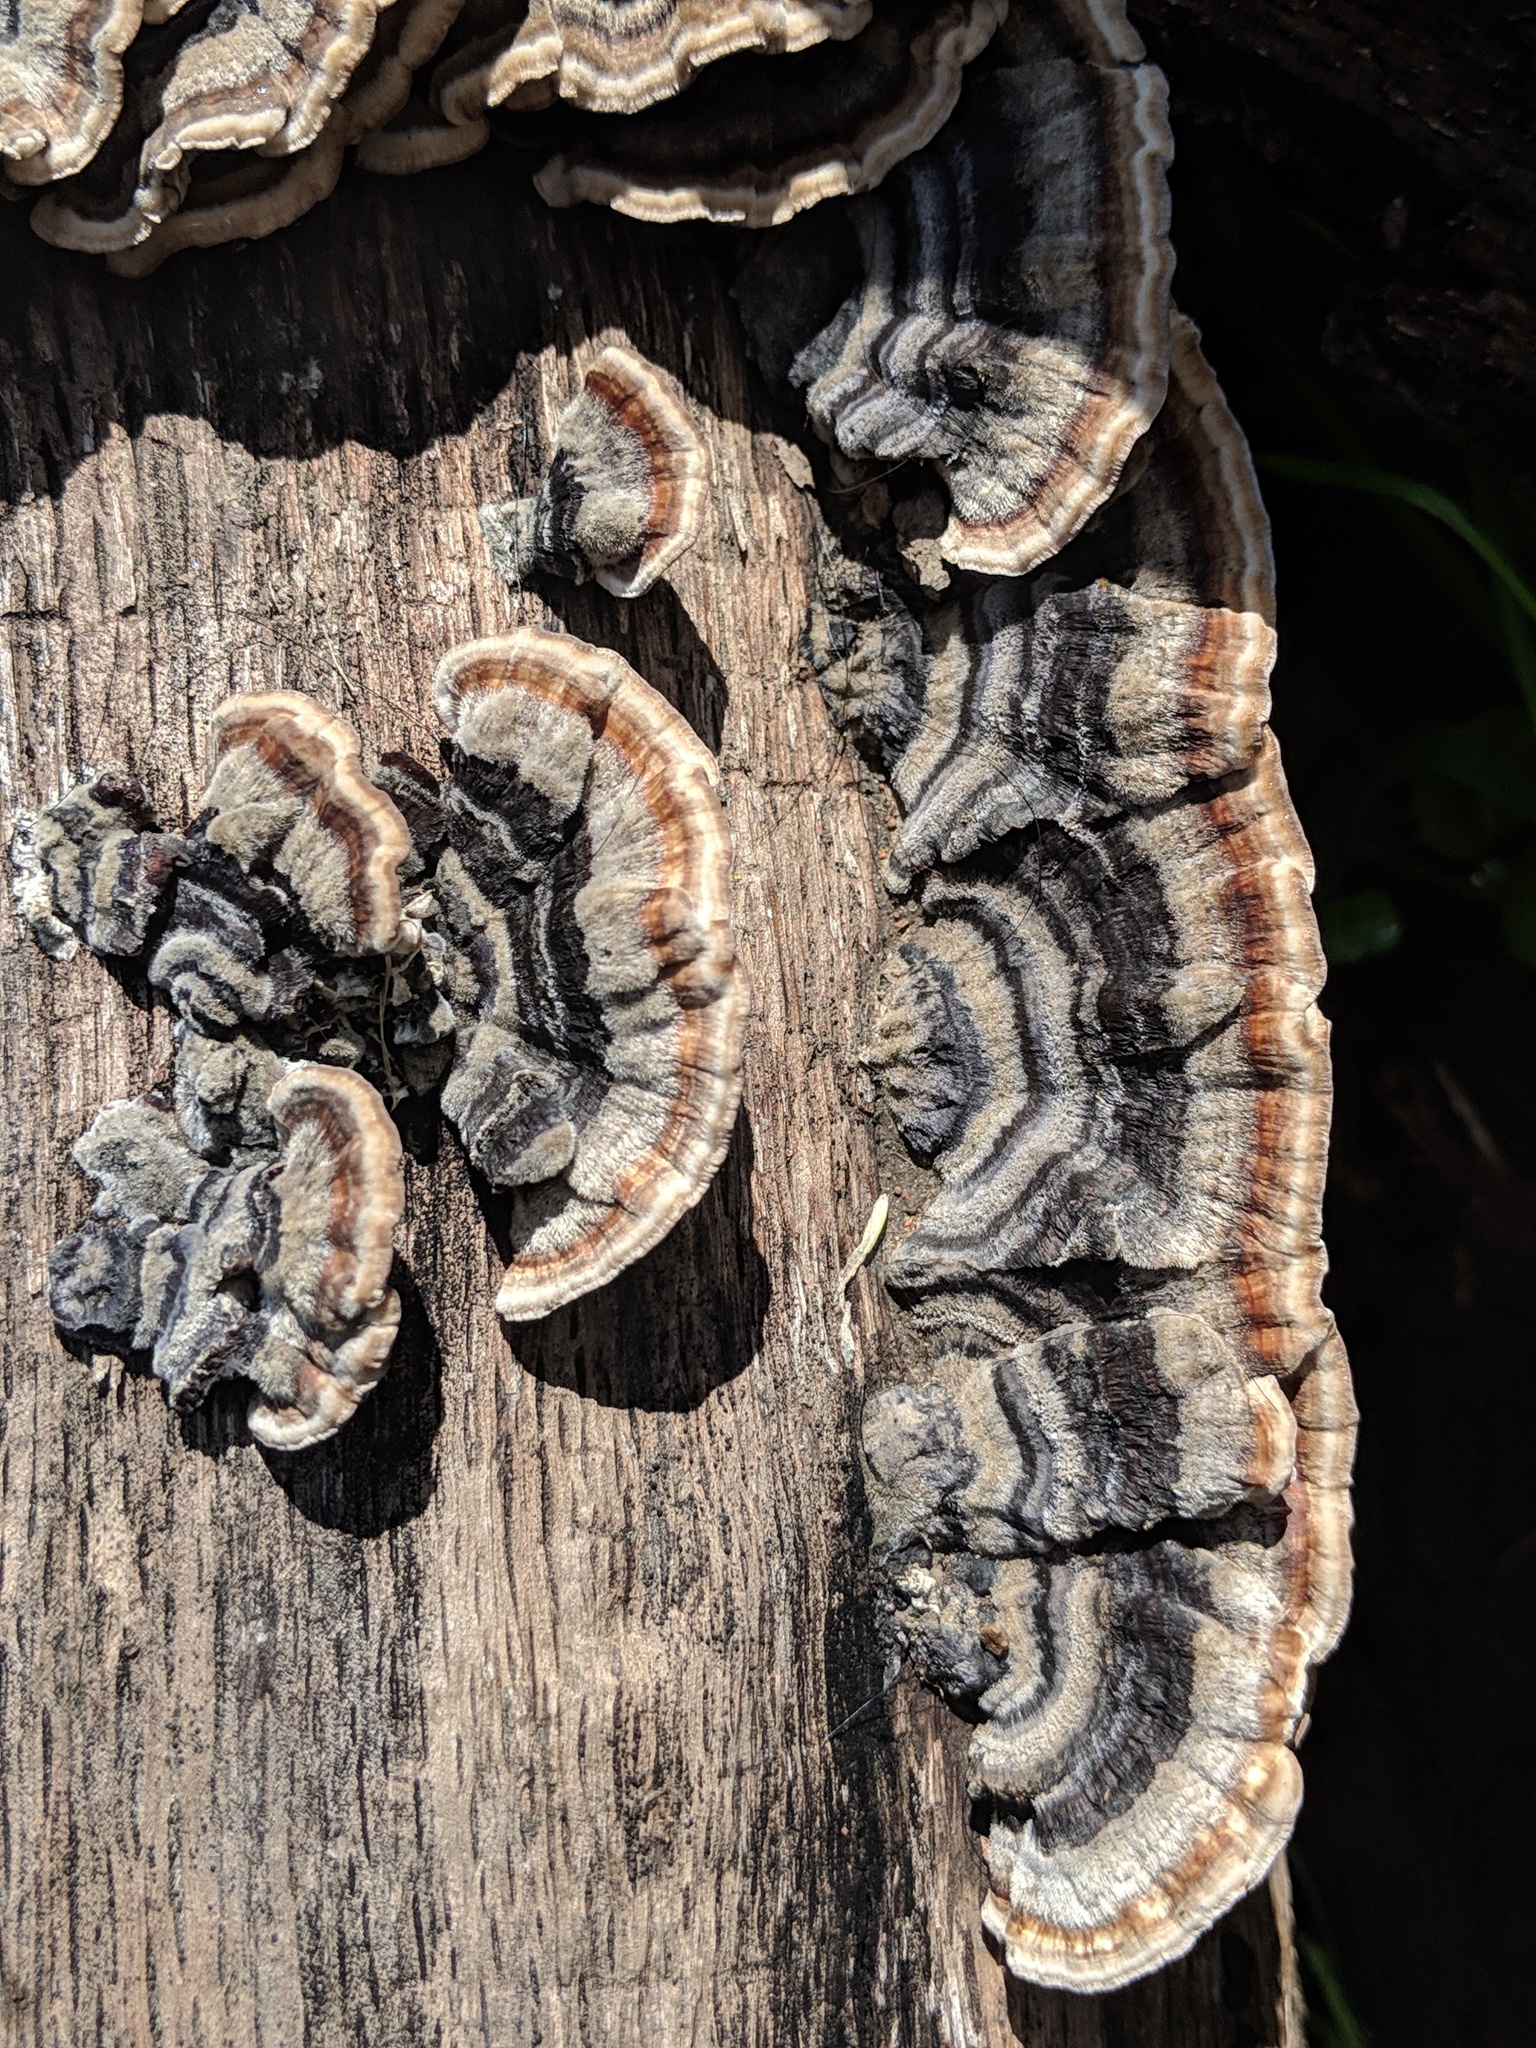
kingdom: Fungi
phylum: Basidiomycota
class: Agaricomycetes
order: Polyporales
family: Polyporaceae
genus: Trametes
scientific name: Trametes versicolor
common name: Turkeytail
